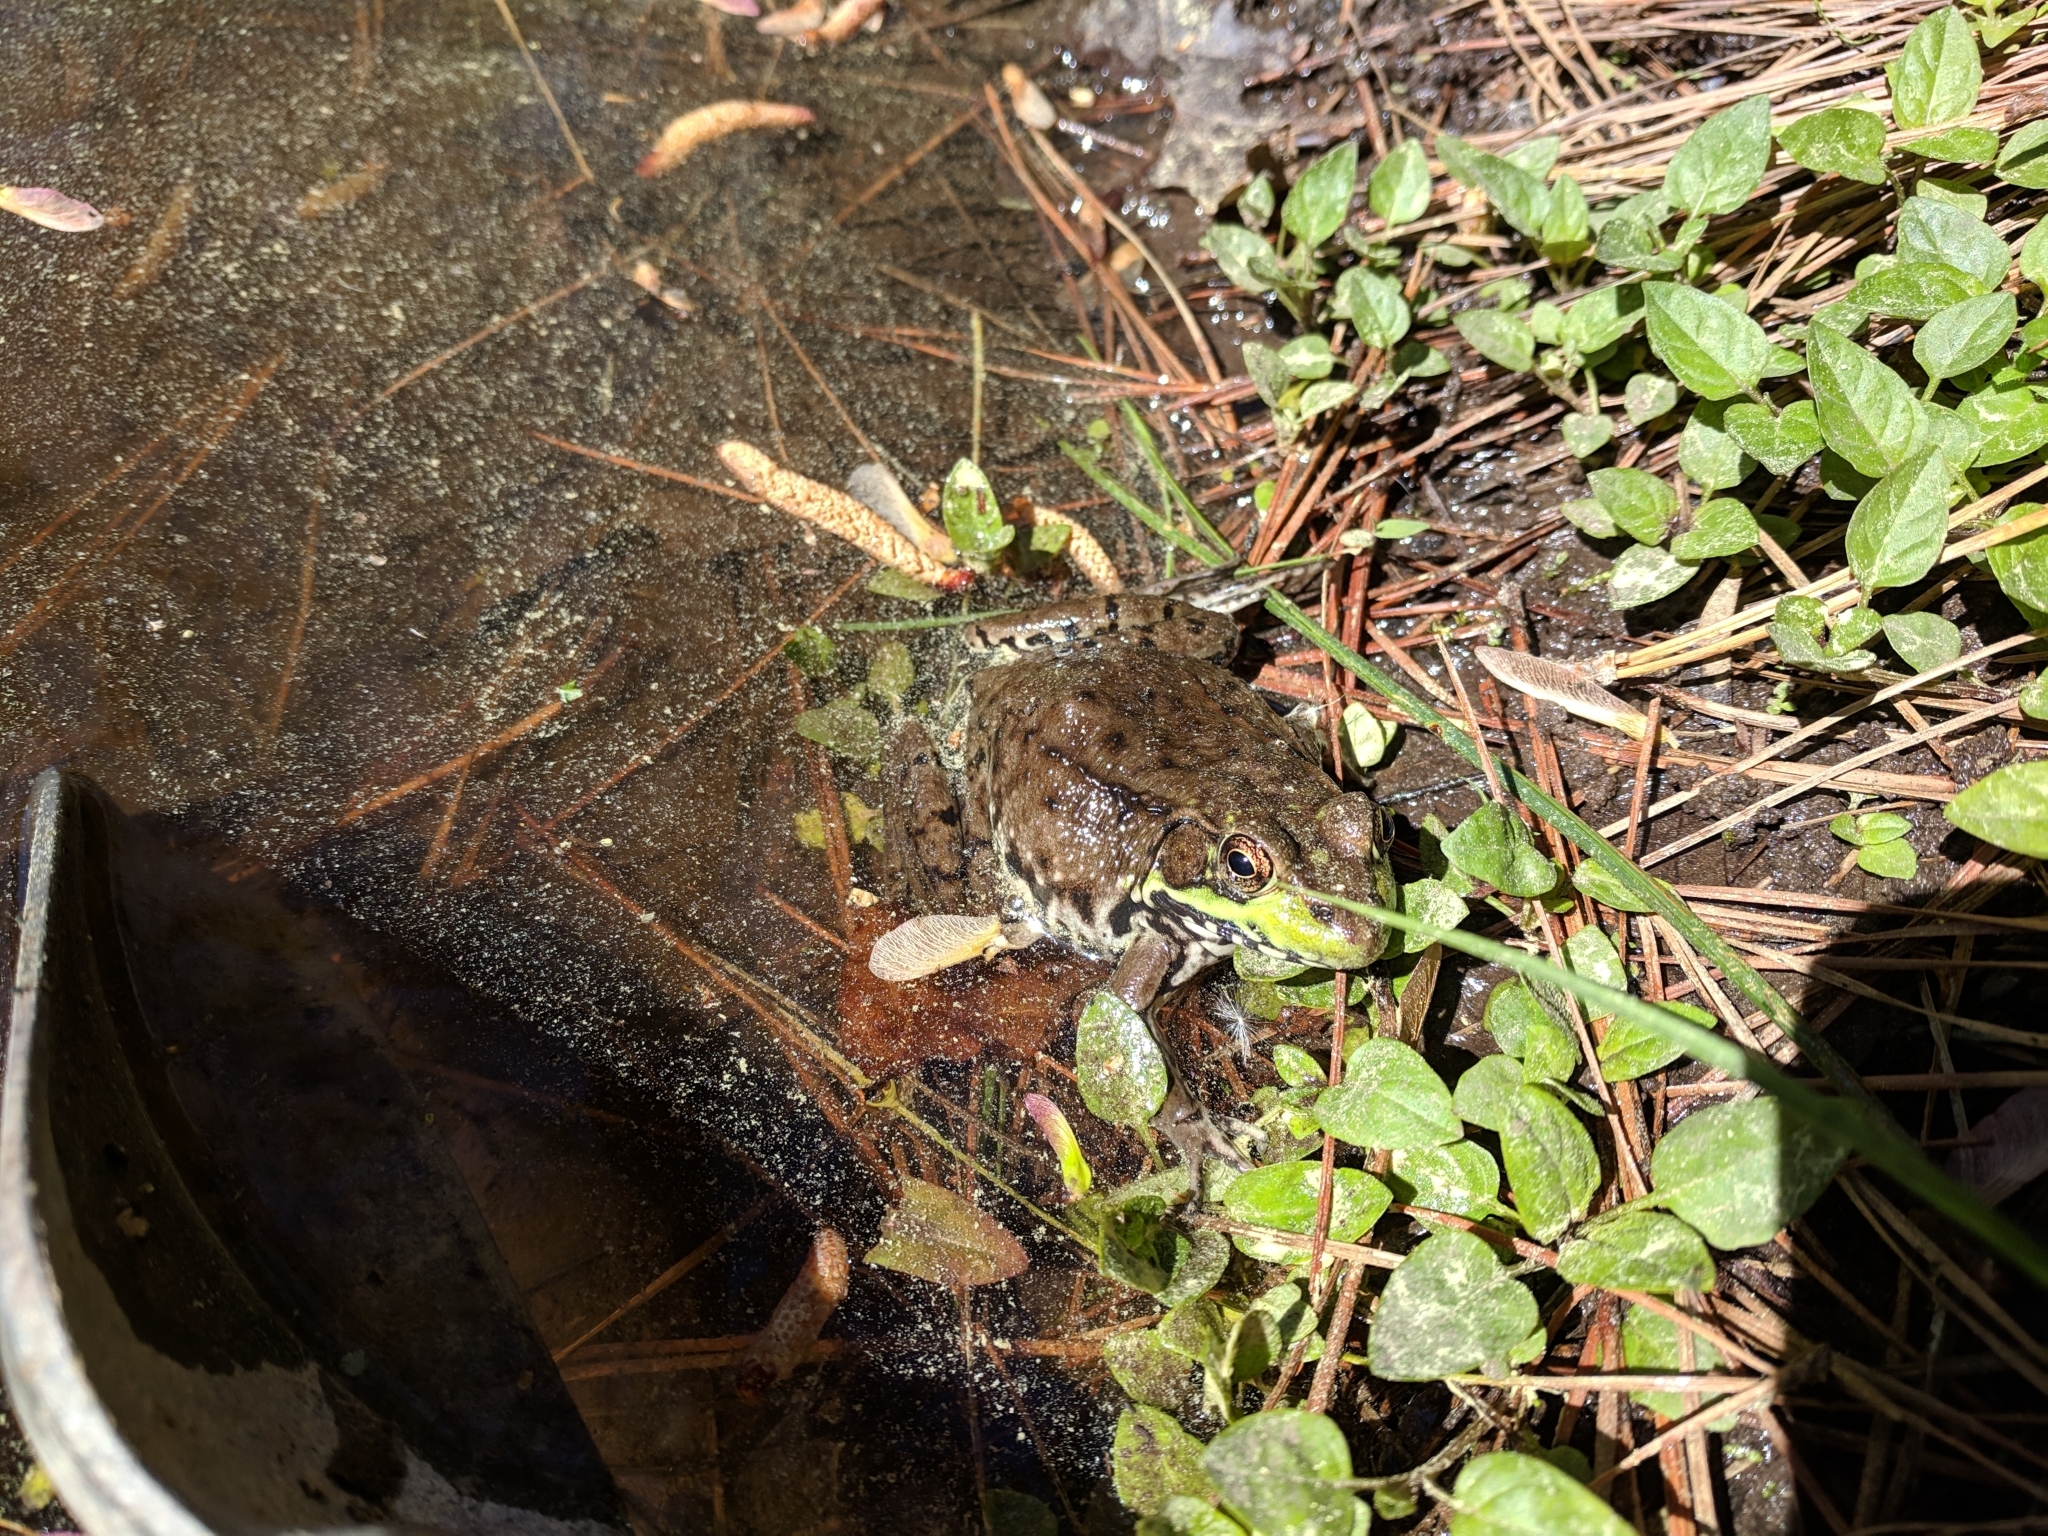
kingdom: Animalia
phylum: Chordata
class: Amphibia
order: Anura
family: Ranidae
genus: Lithobates
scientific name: Lithobates clamitans
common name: Green frog
